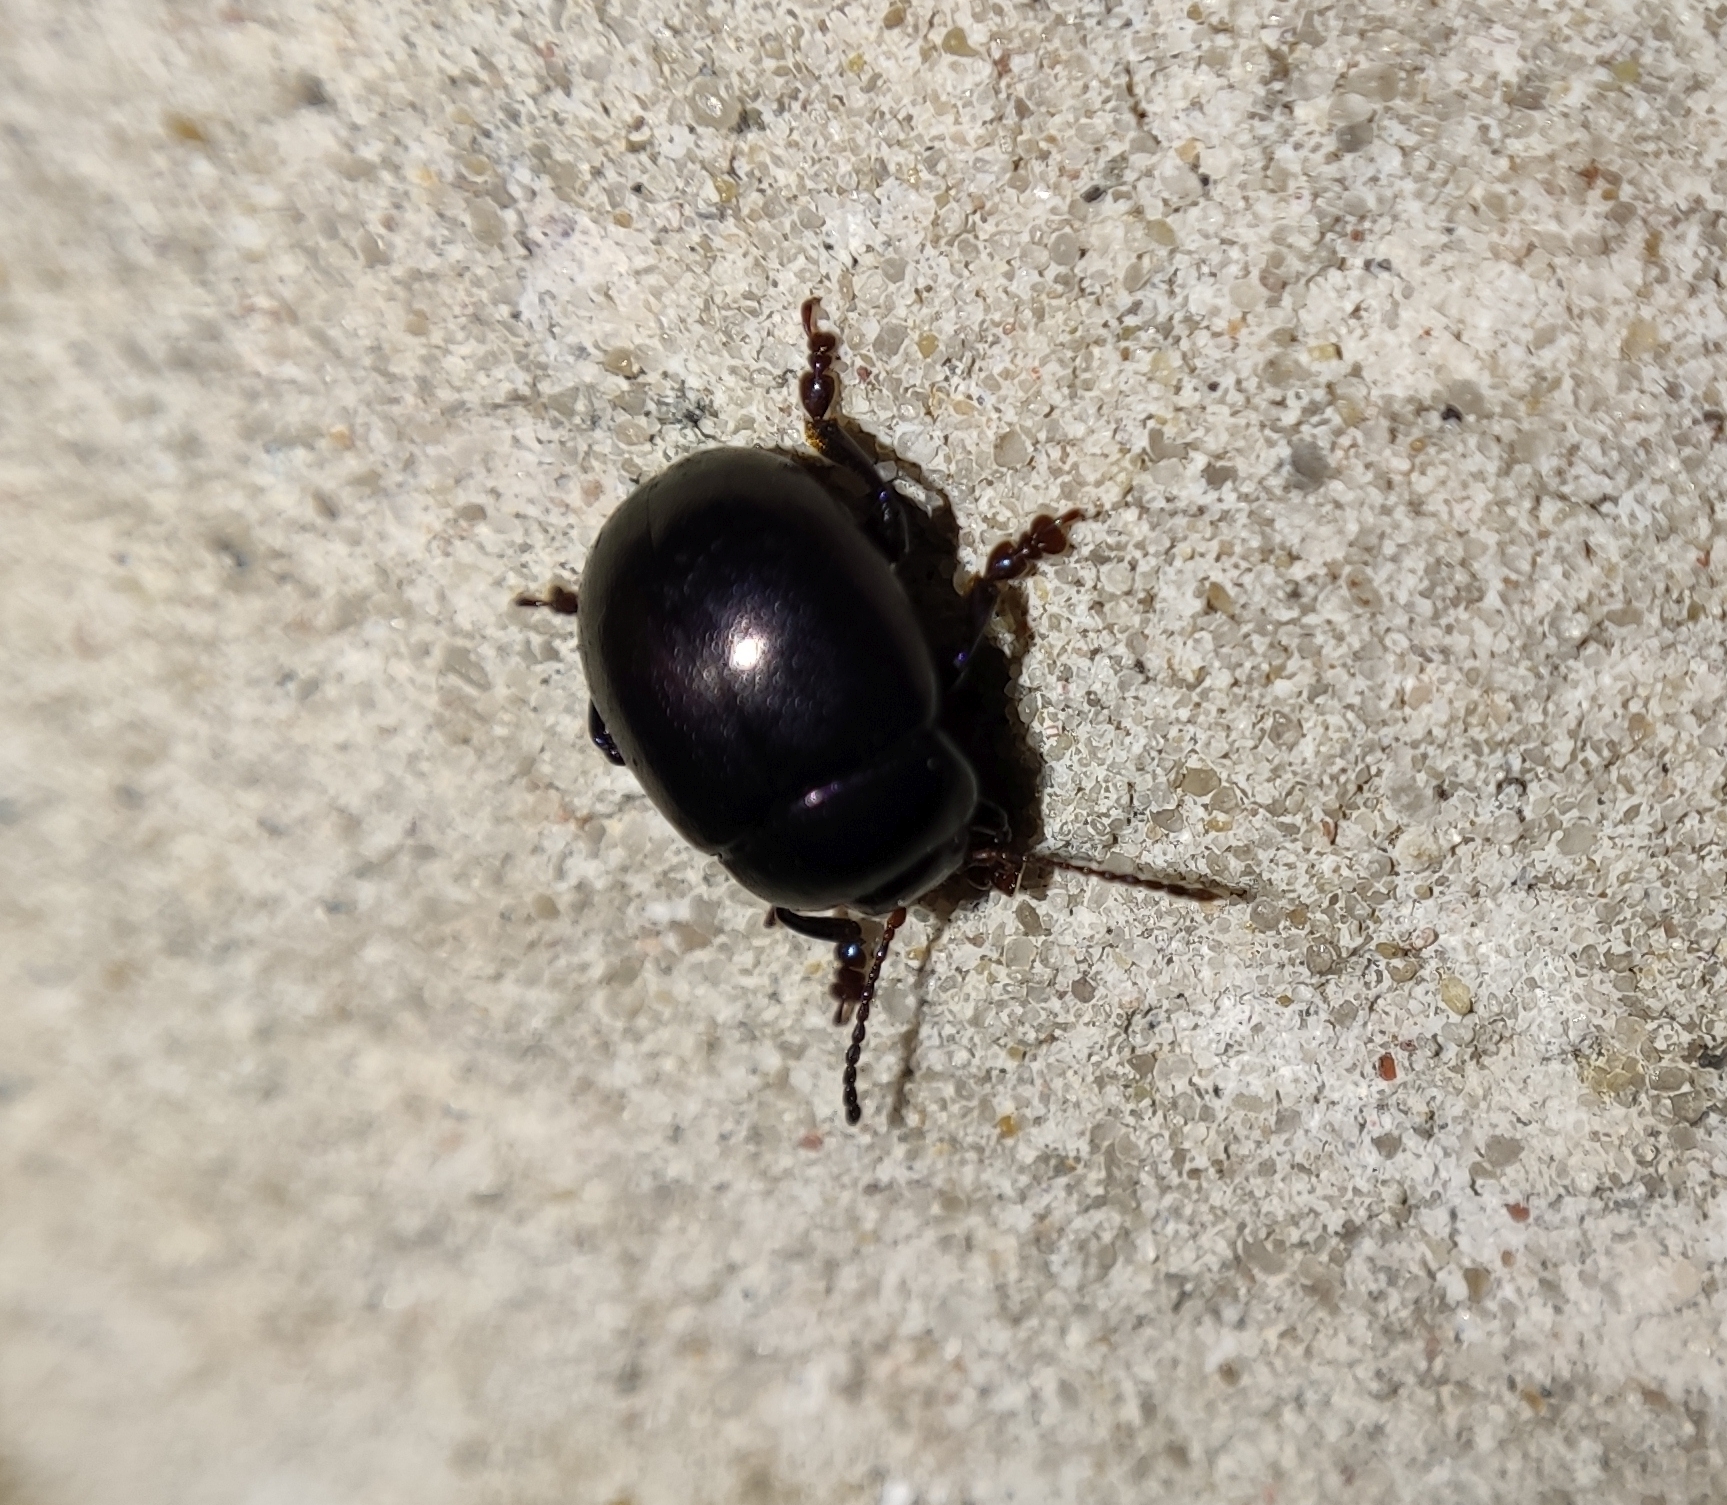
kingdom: Animalia
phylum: Arthropoda
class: Insecta
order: Coleoptera
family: Chrysomelidae
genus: Chrysolina
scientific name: Chrysolina sturmi
